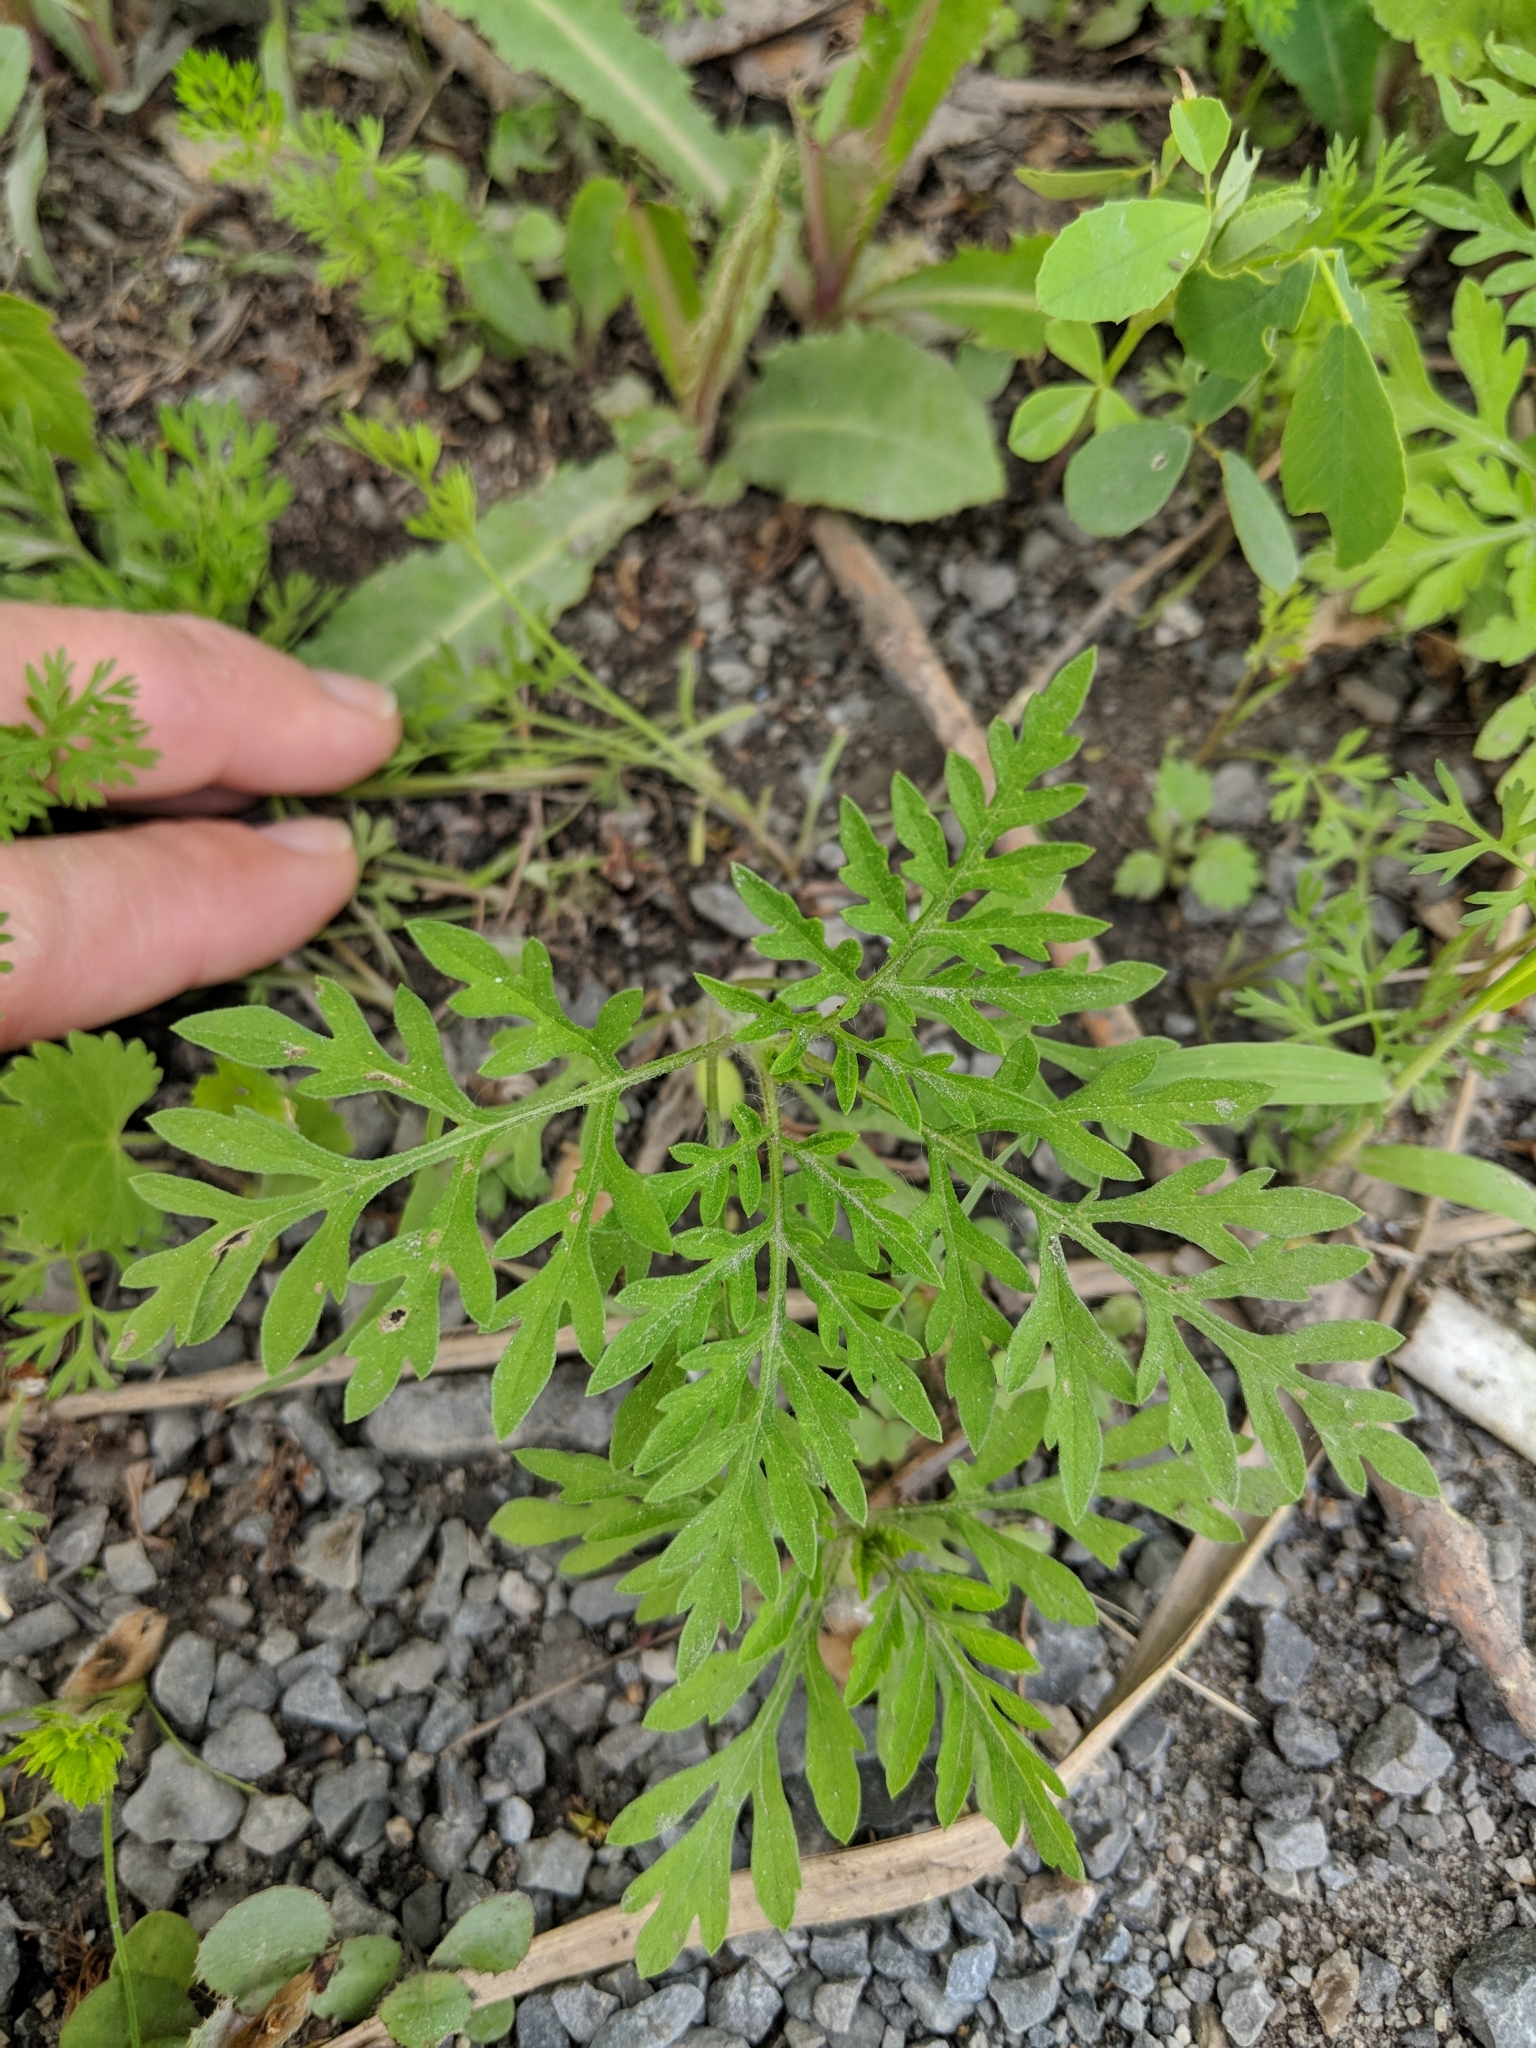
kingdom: Plantae
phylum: Tracheophyta
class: Magnoliopsida
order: Asterales
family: Asteraceae
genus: Ambrosia
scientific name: Ambrosia artemisiifolia
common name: Annual ragweed
